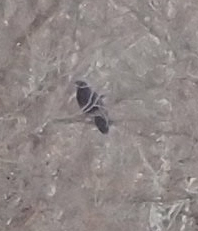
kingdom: Animalia
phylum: Chordata
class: Aves
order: Passeriformes
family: Corvidae
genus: Corvus
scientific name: Corvus corax
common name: Common raven
